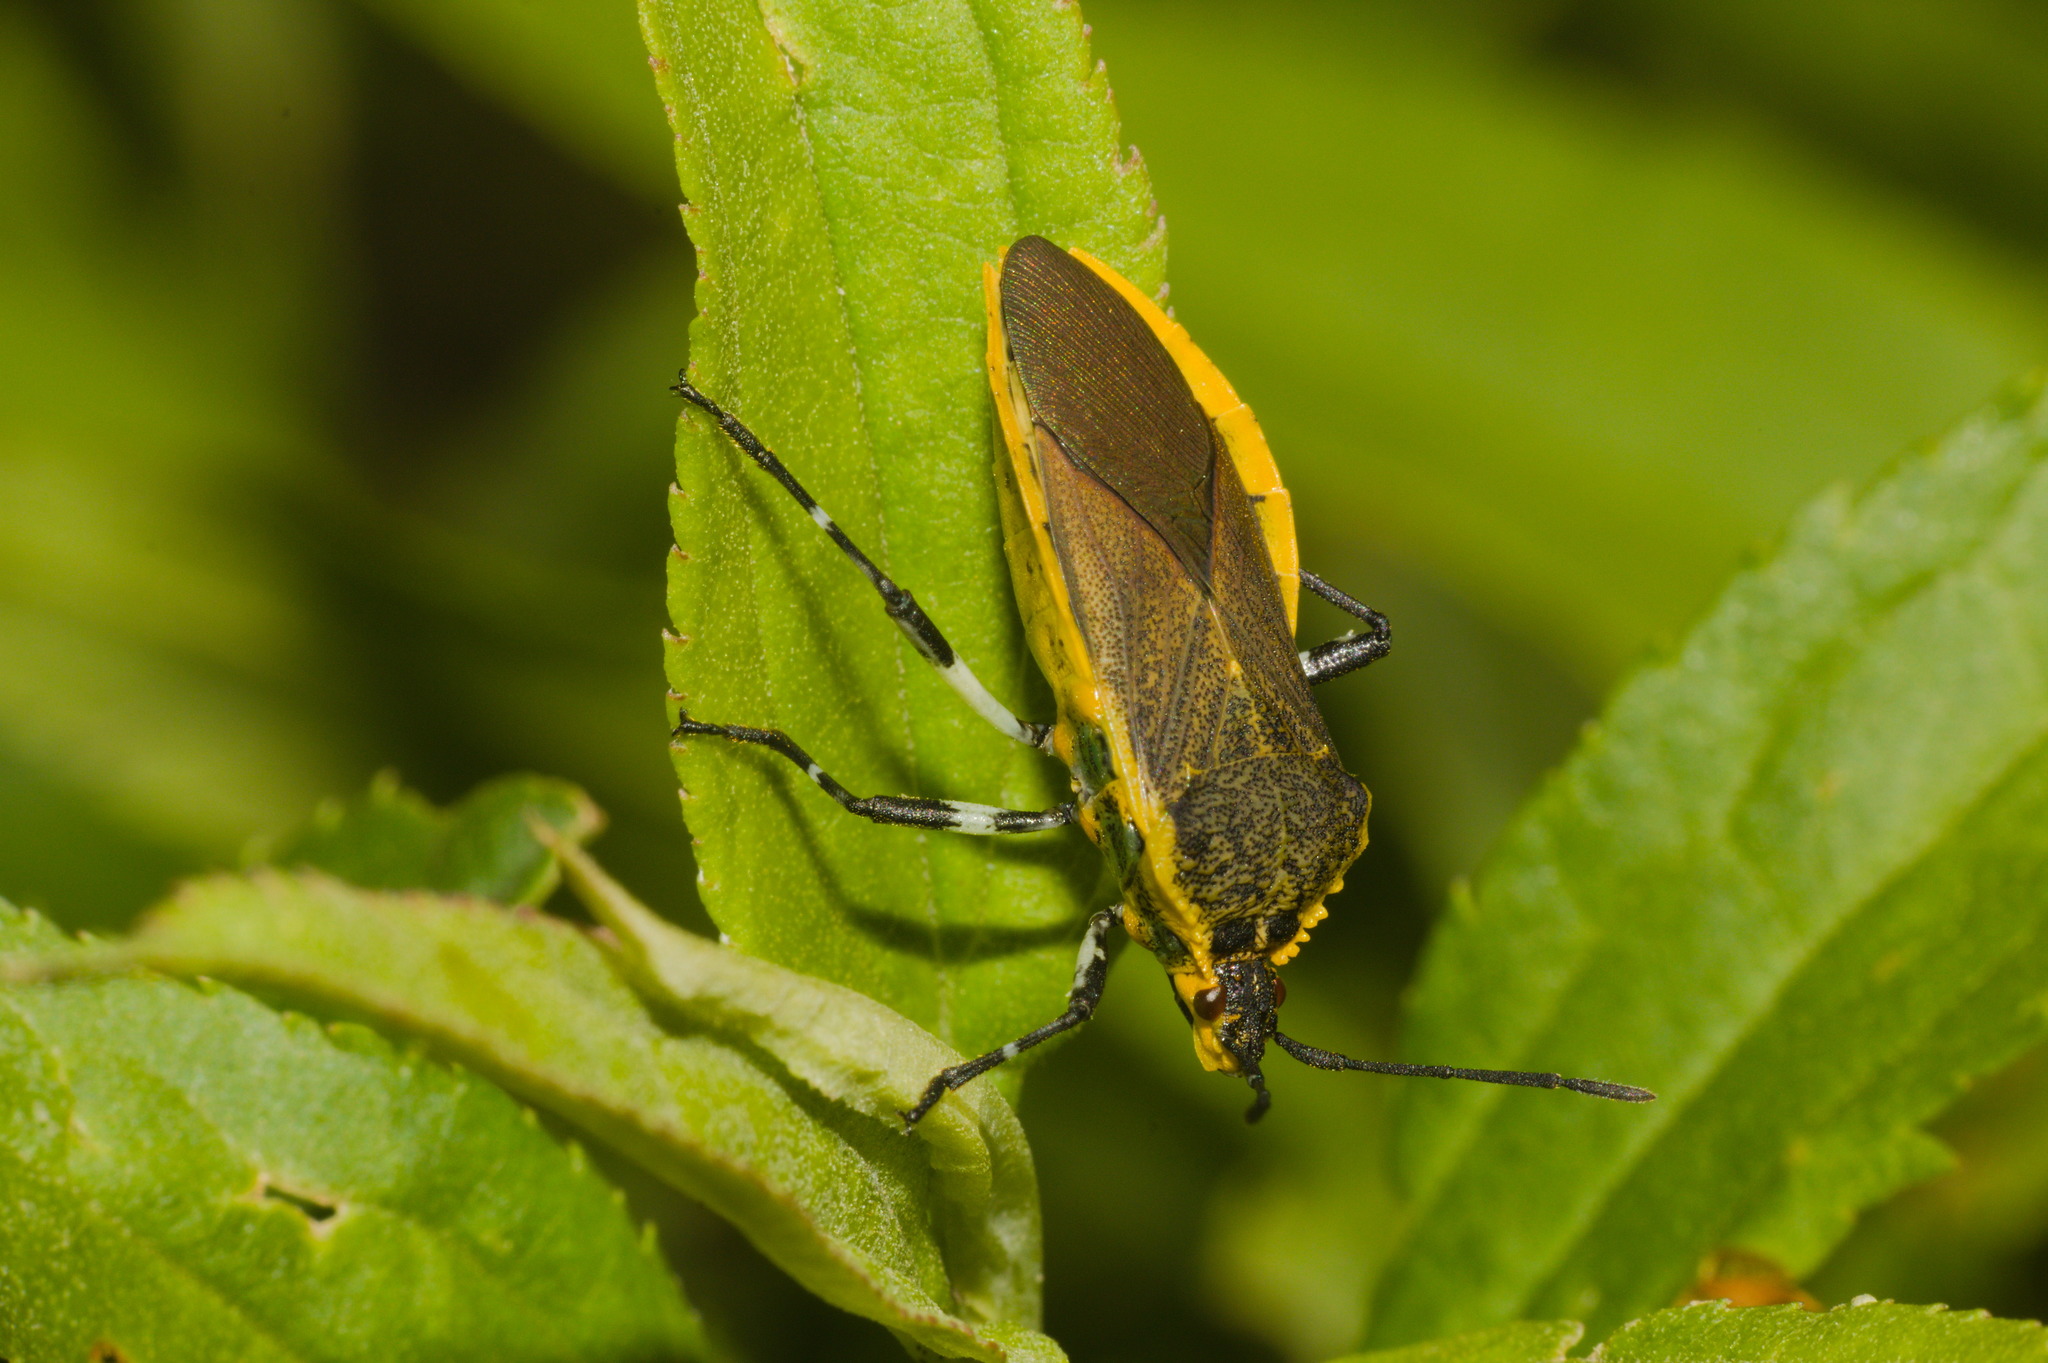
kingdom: Animalia
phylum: Arthropoda
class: Insecta
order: Hemiptera
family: Coreidae
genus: Acidomeria
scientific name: Acidomeria nigricornis
